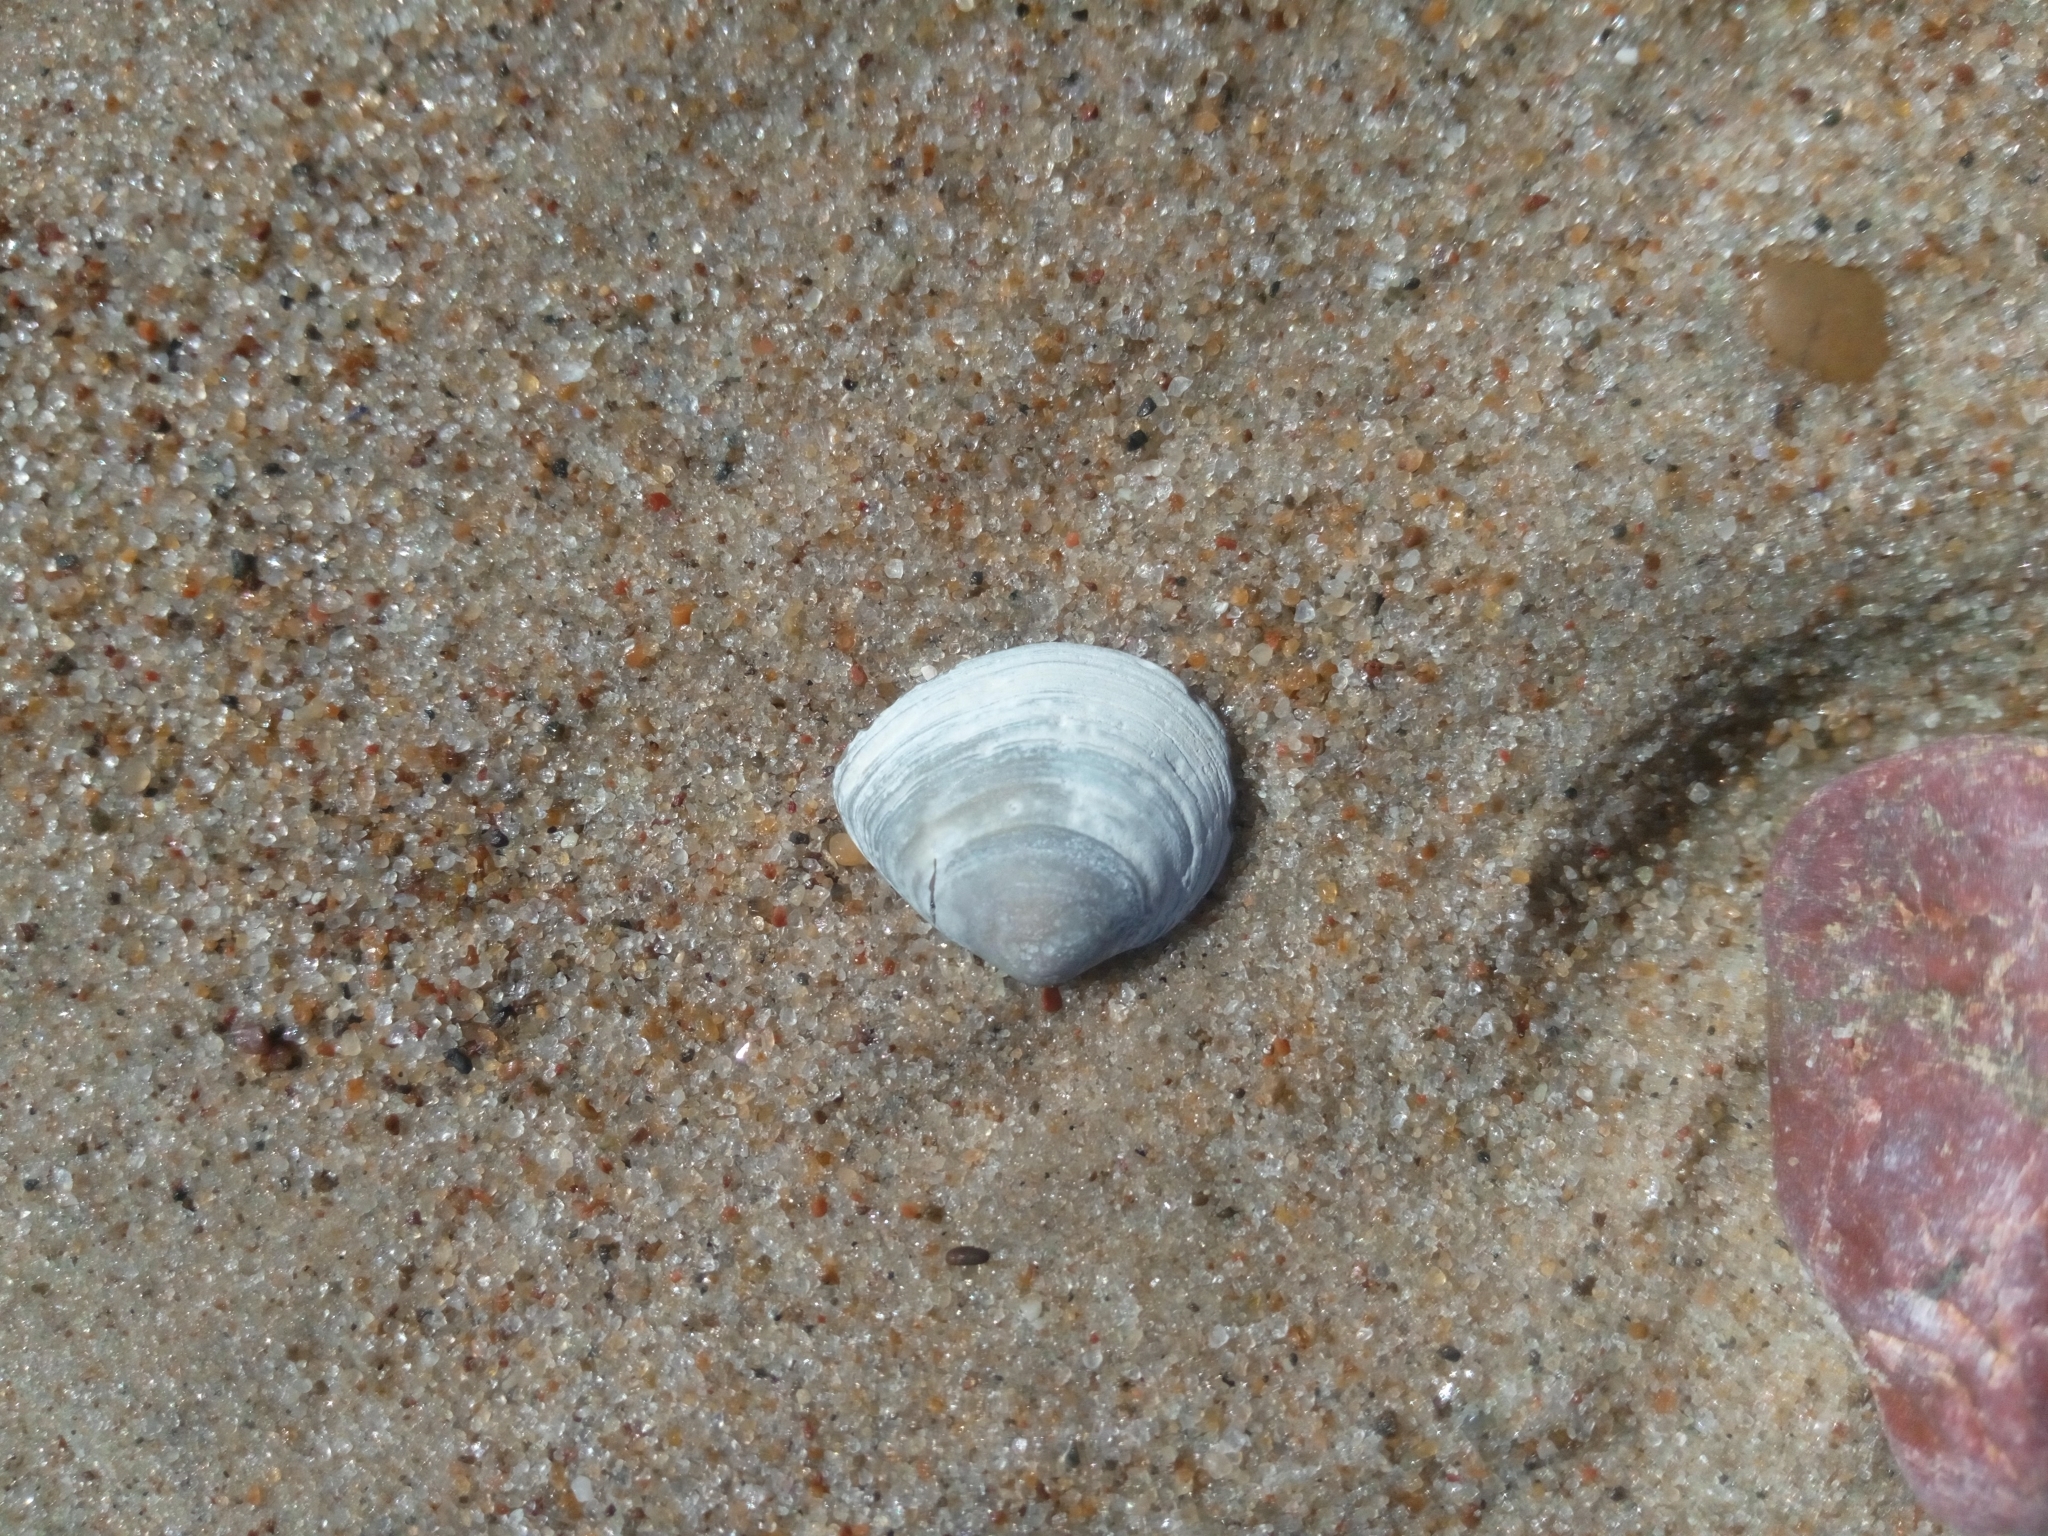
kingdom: Animalia
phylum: Mollusca
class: Bivalvia
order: Cardiida
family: Tellinidae
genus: Macoma
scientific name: Macoma balthica
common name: Baltic tellin
